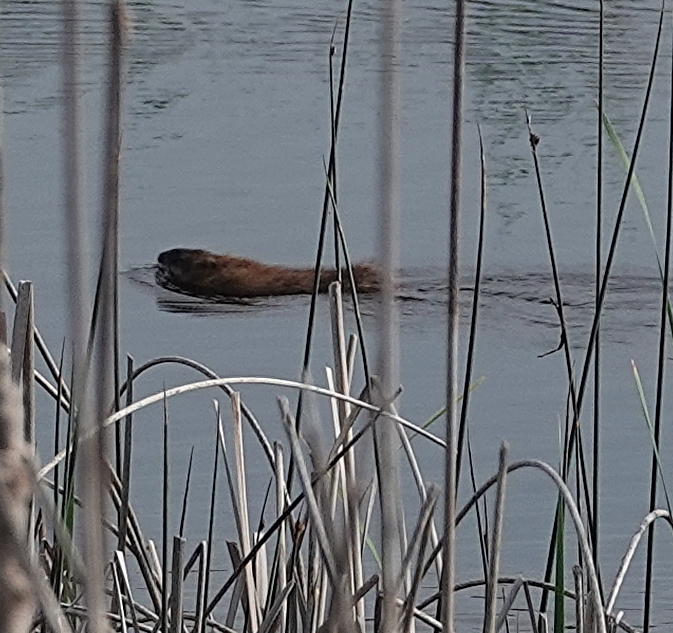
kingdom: Animalia
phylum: Chordata
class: Mammalia
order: Rodentia
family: Cricetidae
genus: Ondatra
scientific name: Ondatra zibethicus
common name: Muskrat
